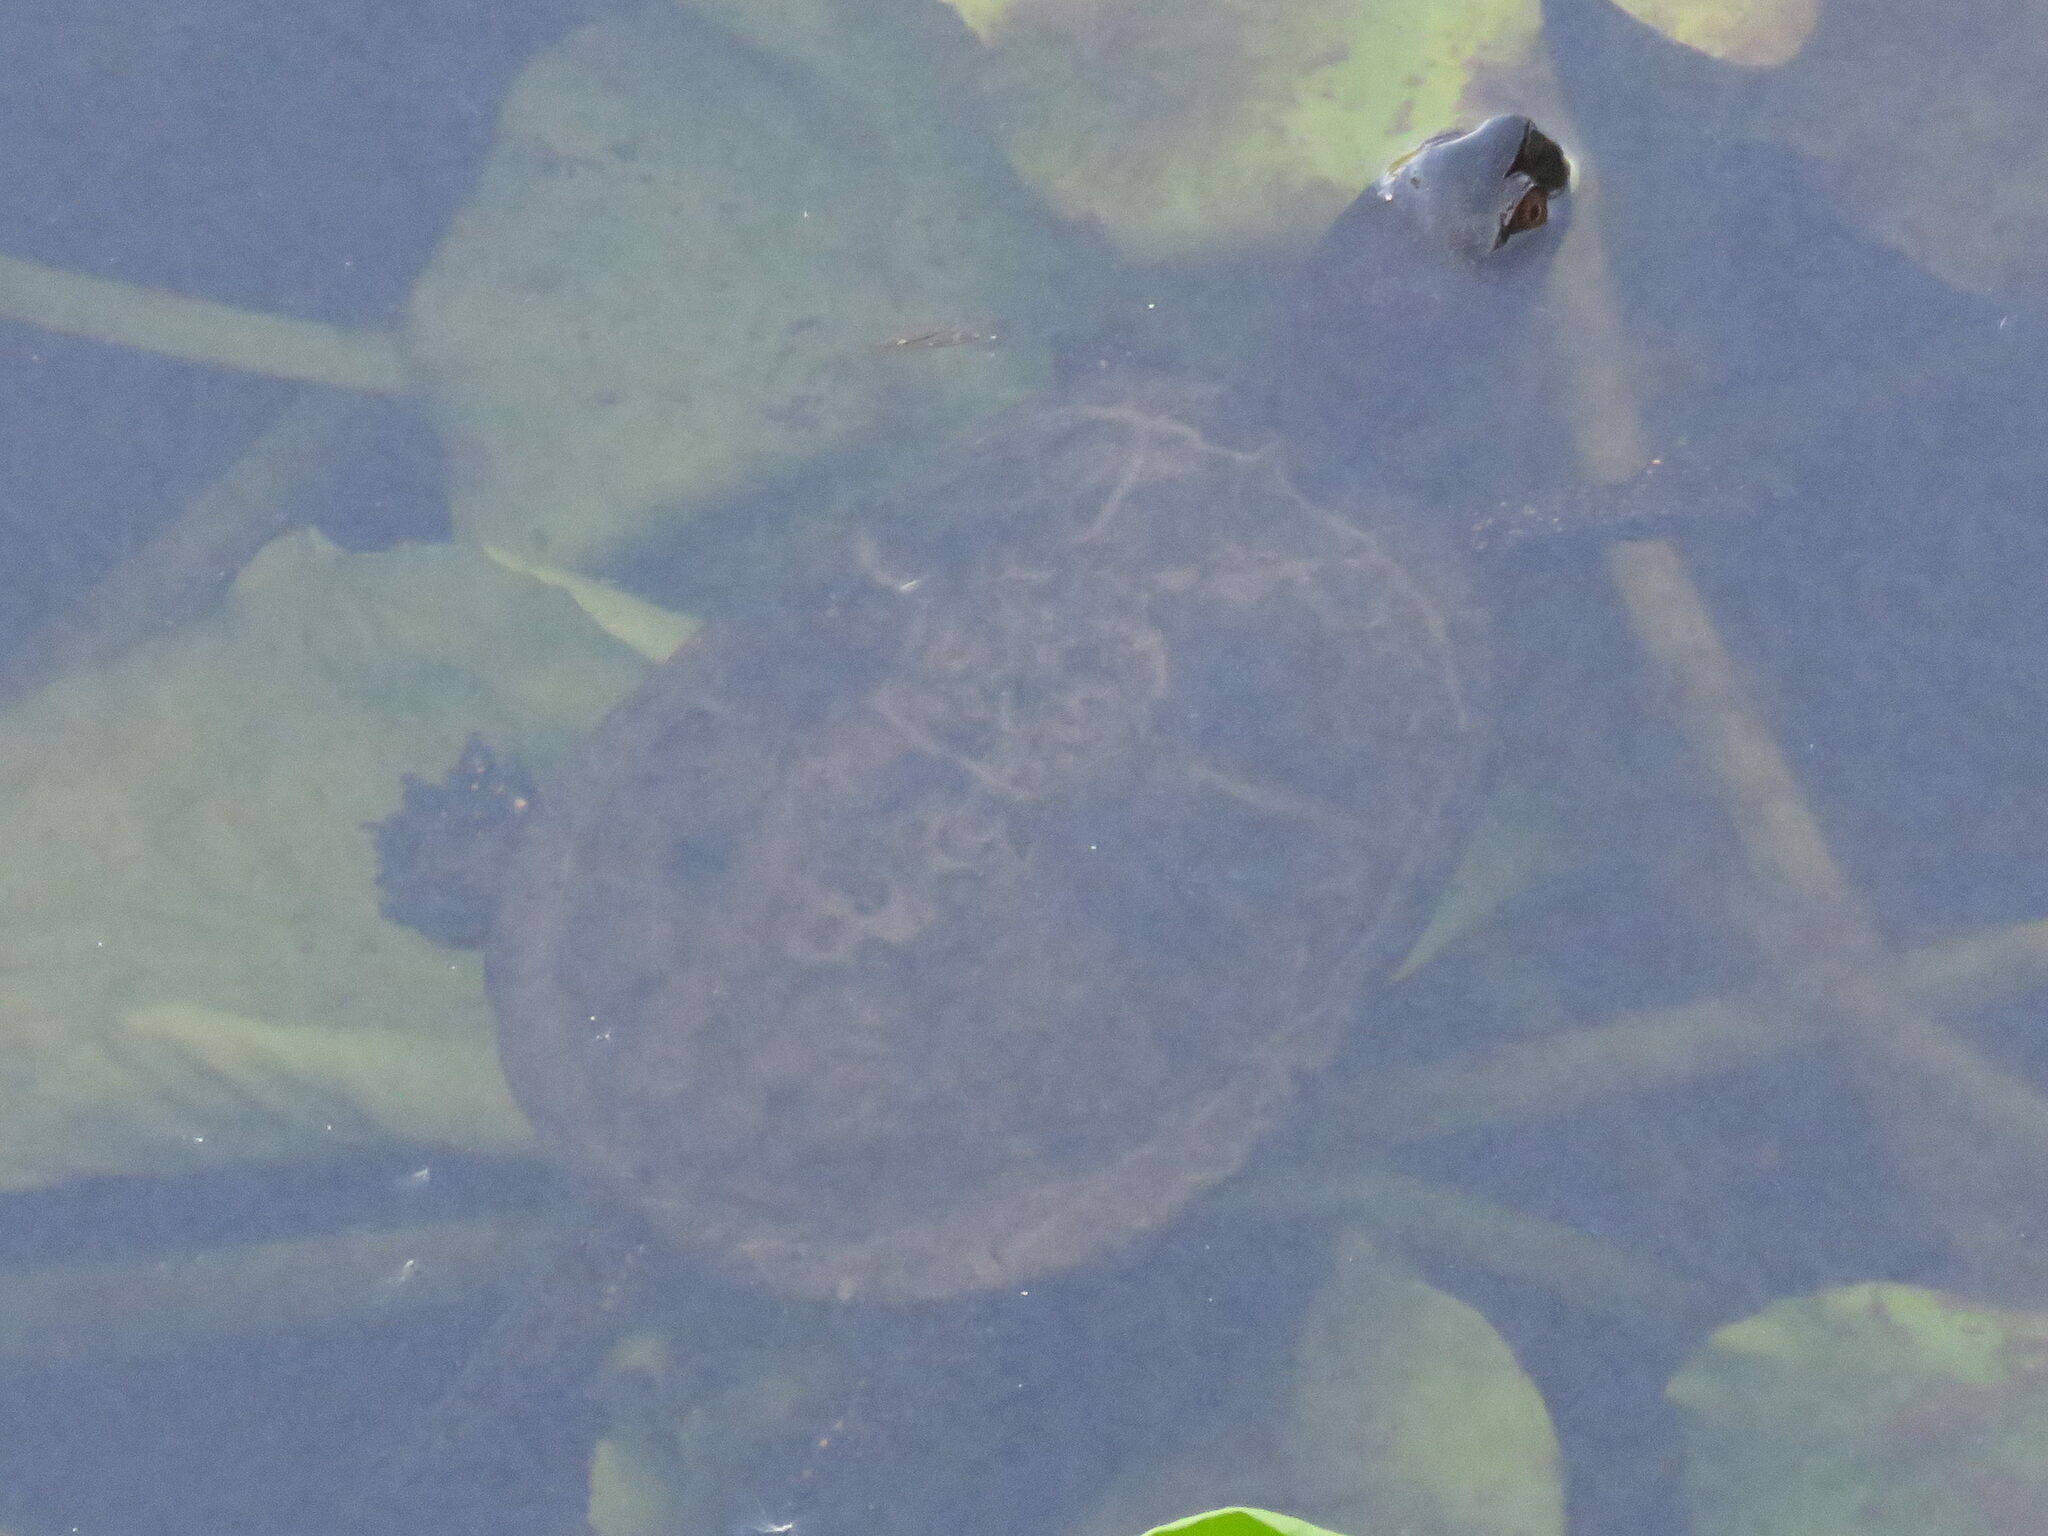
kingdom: Animalia
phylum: Chordata
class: Testudines
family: Emydidae
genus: Emys
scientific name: Emys orbicularis
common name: European pond turtle
